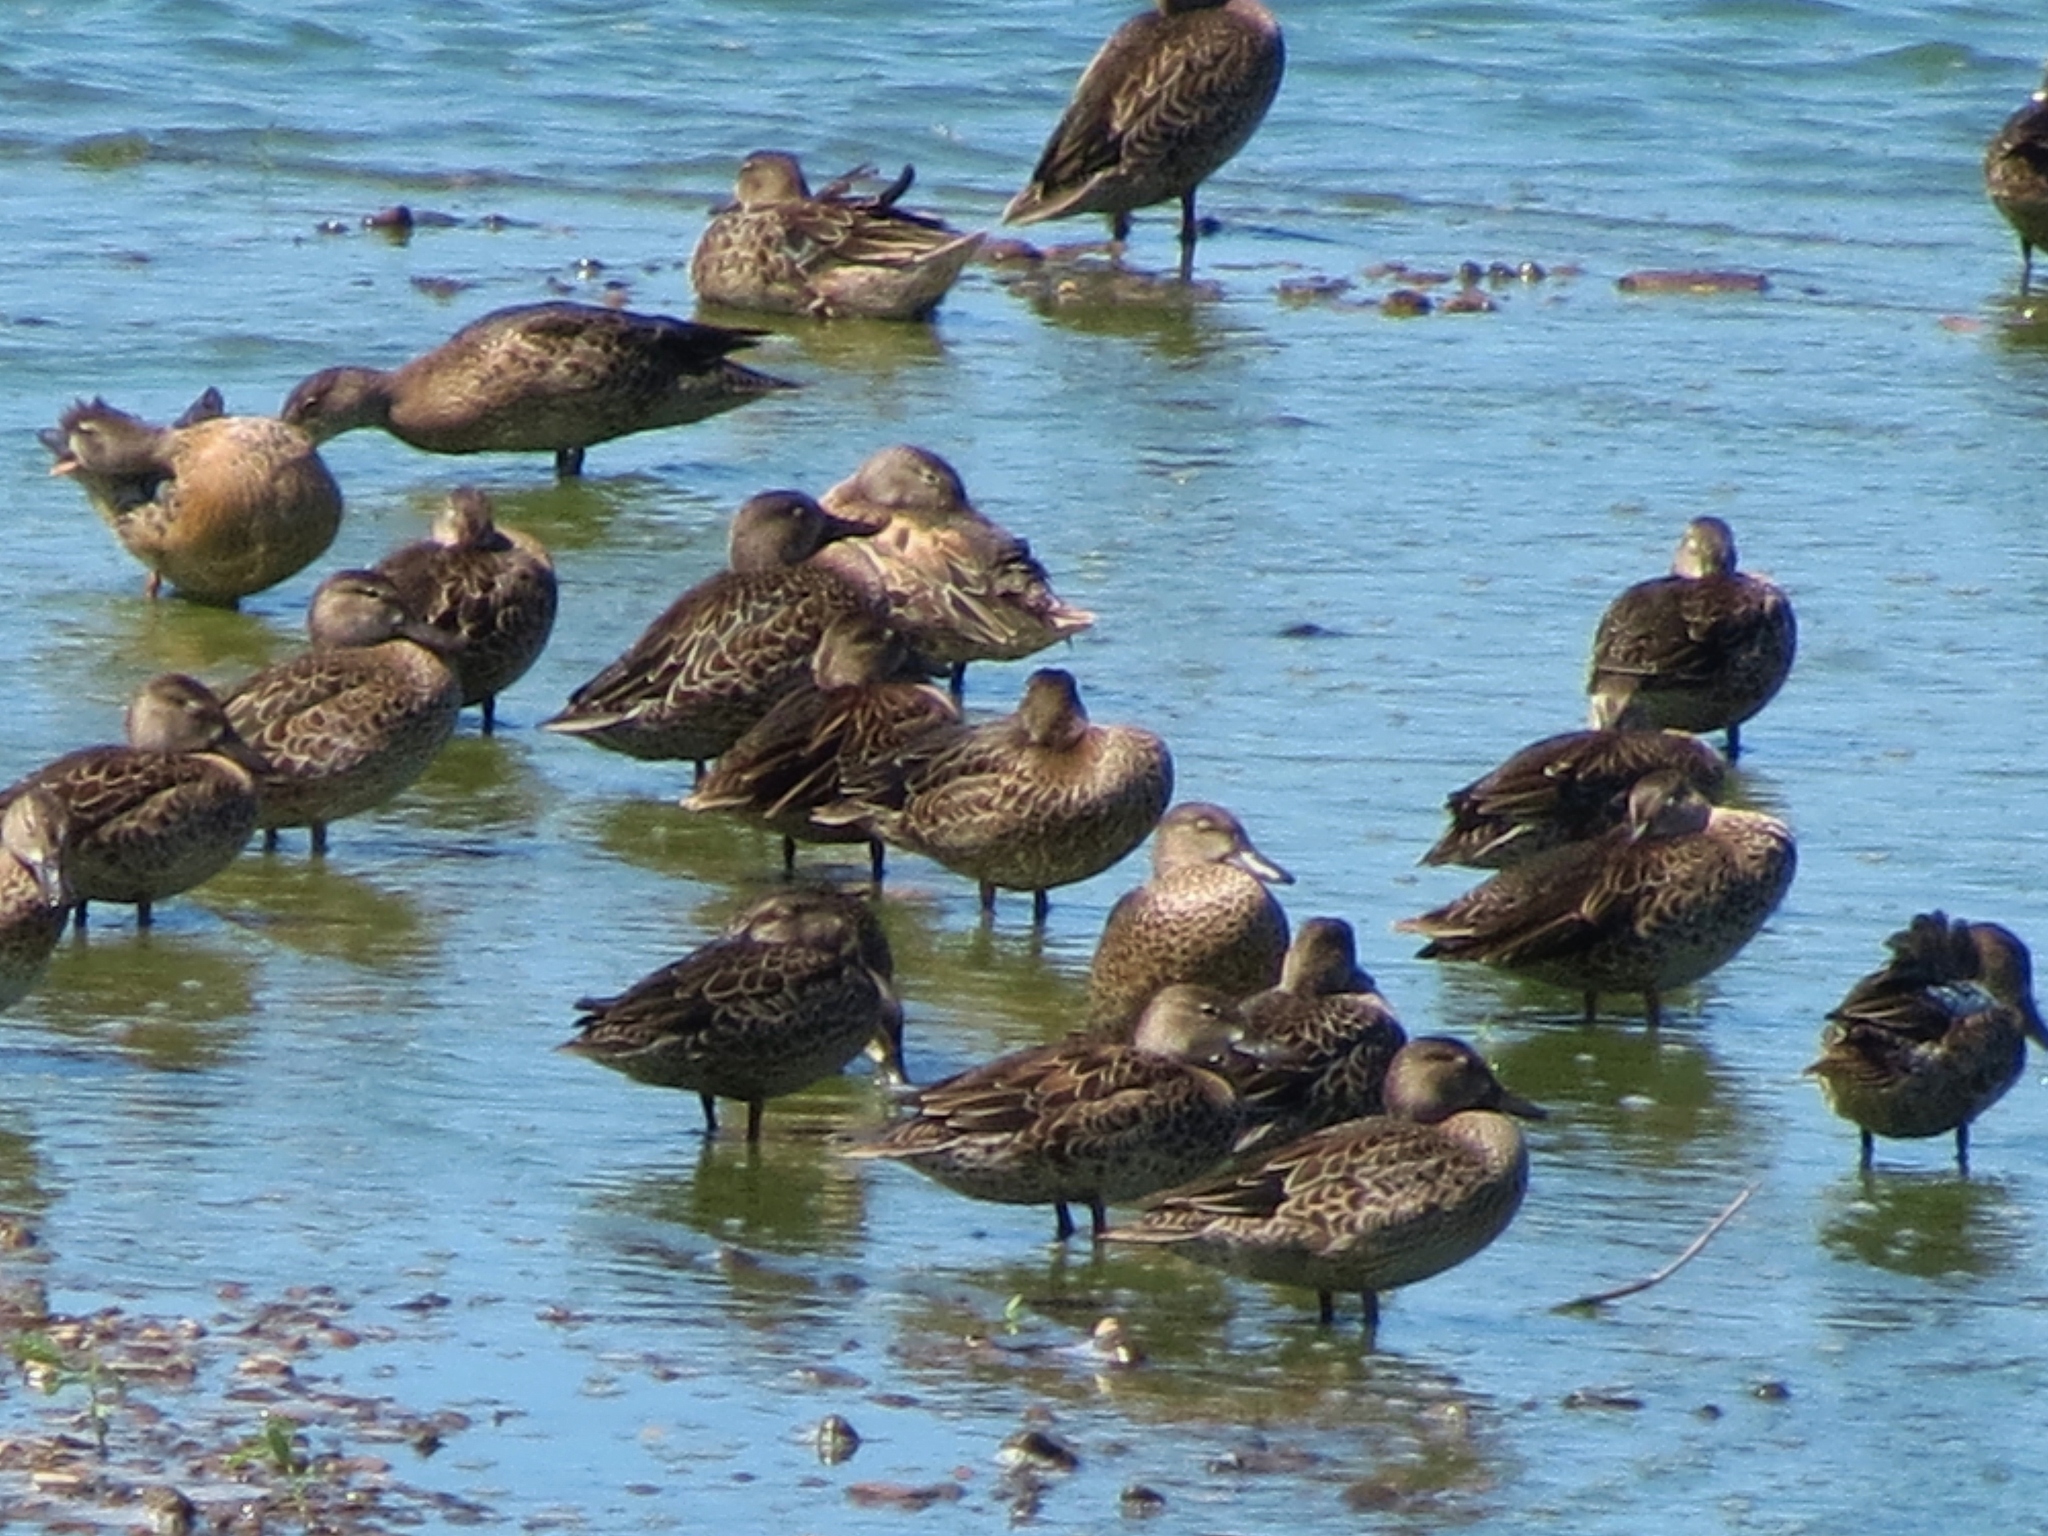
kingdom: Animalia
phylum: Chordata
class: Aves
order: Anseriformes
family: Anatidae
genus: Spatula
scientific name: Spatula discors
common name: Blue-winged teal
